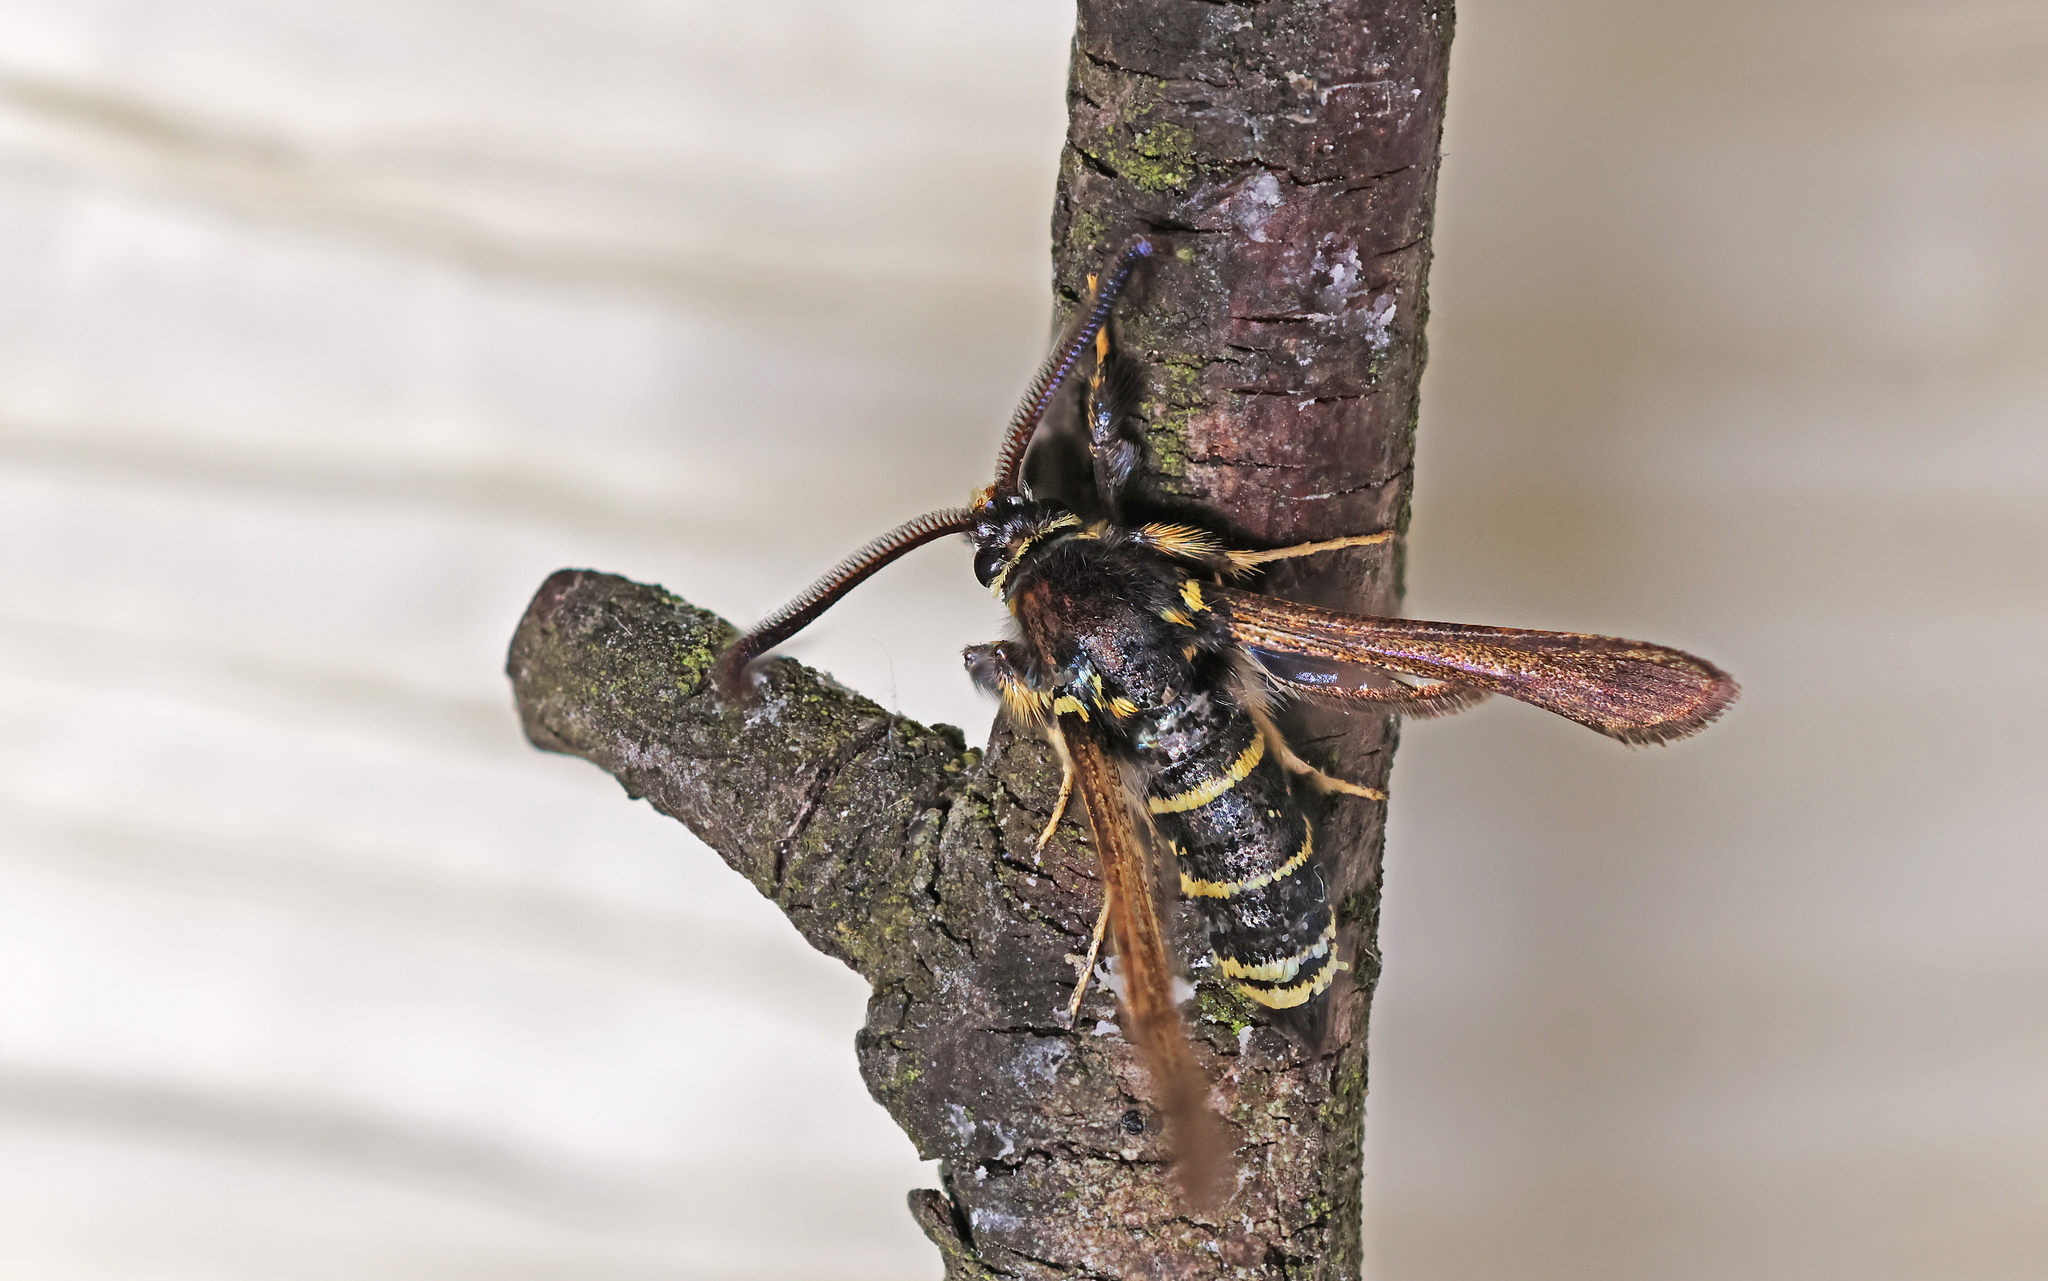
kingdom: Animalia
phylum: Arthropoda
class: Insecta
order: Lepidoptera
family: Sesiidae
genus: Paranthrene
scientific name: Paranthrene tabaniformis
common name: Dusky clearwing
